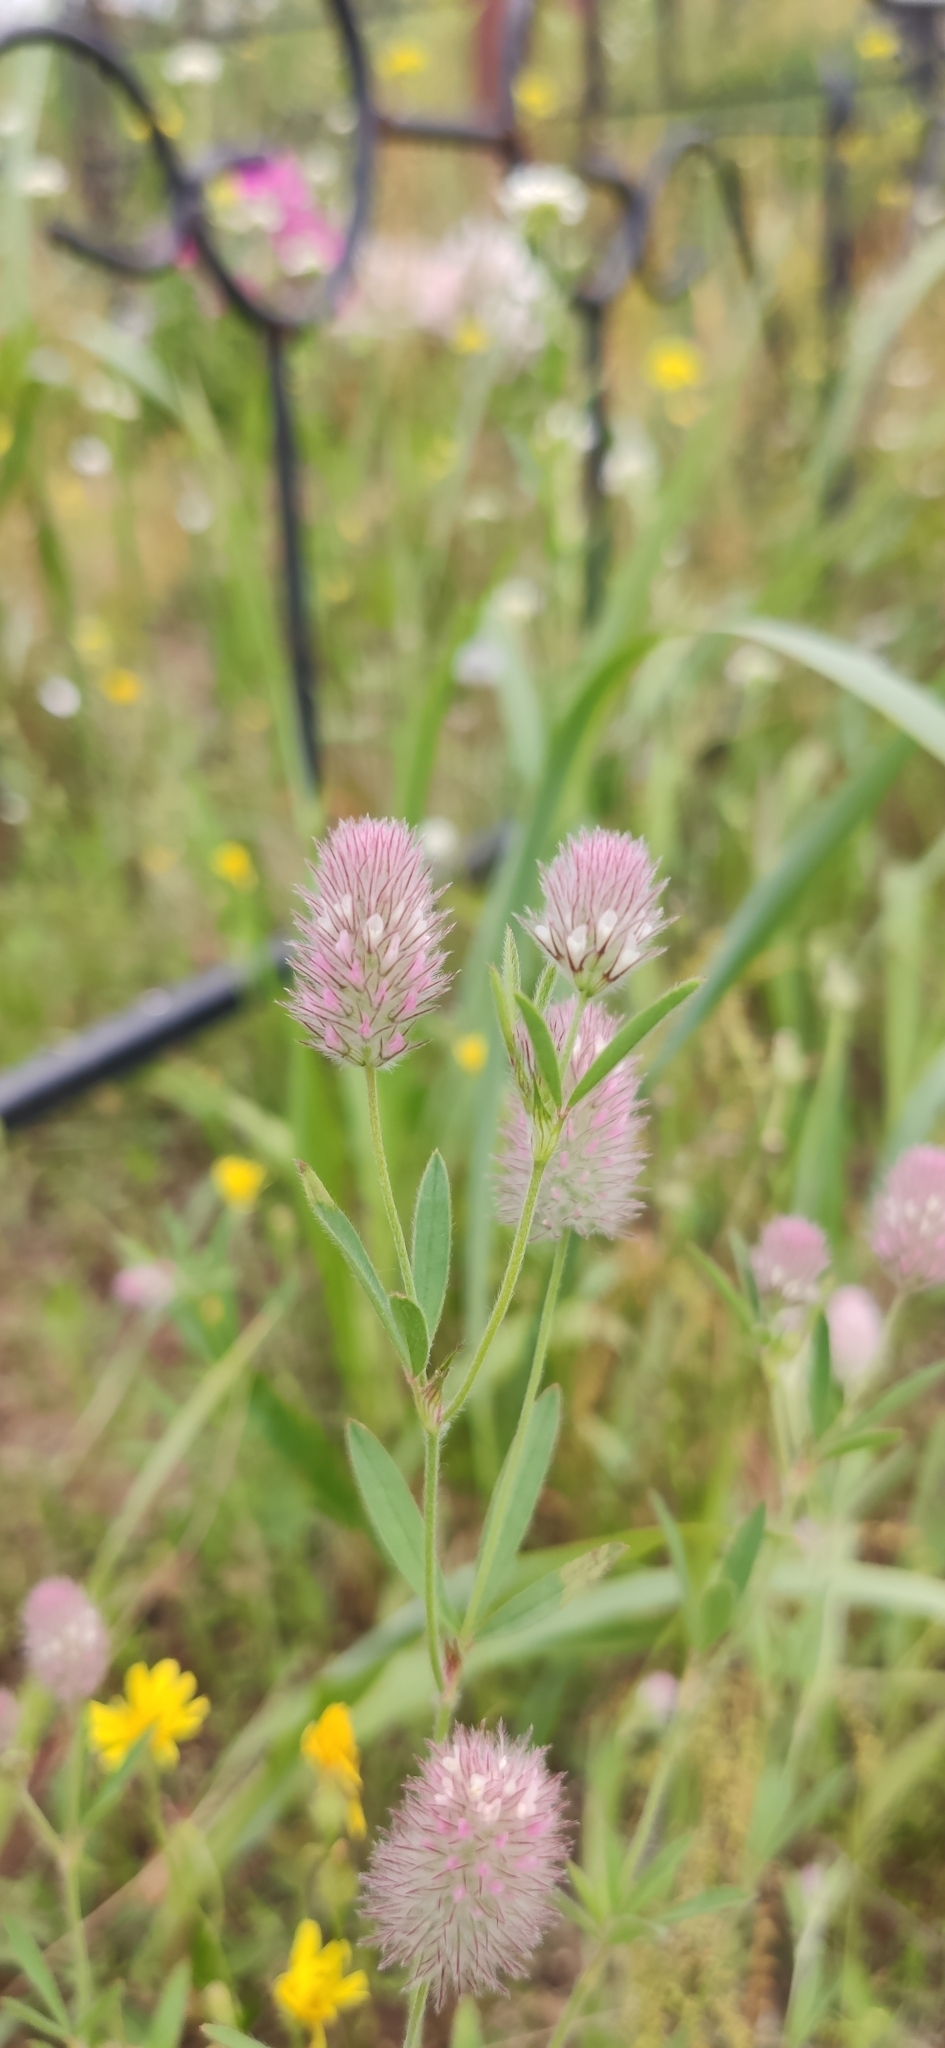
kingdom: Plantae
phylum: Tracheophyta
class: Magnoliopsida
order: Fabales
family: Fabaceae
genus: Trifolium
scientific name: Trifolium arvense
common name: Hare's-foot clover
